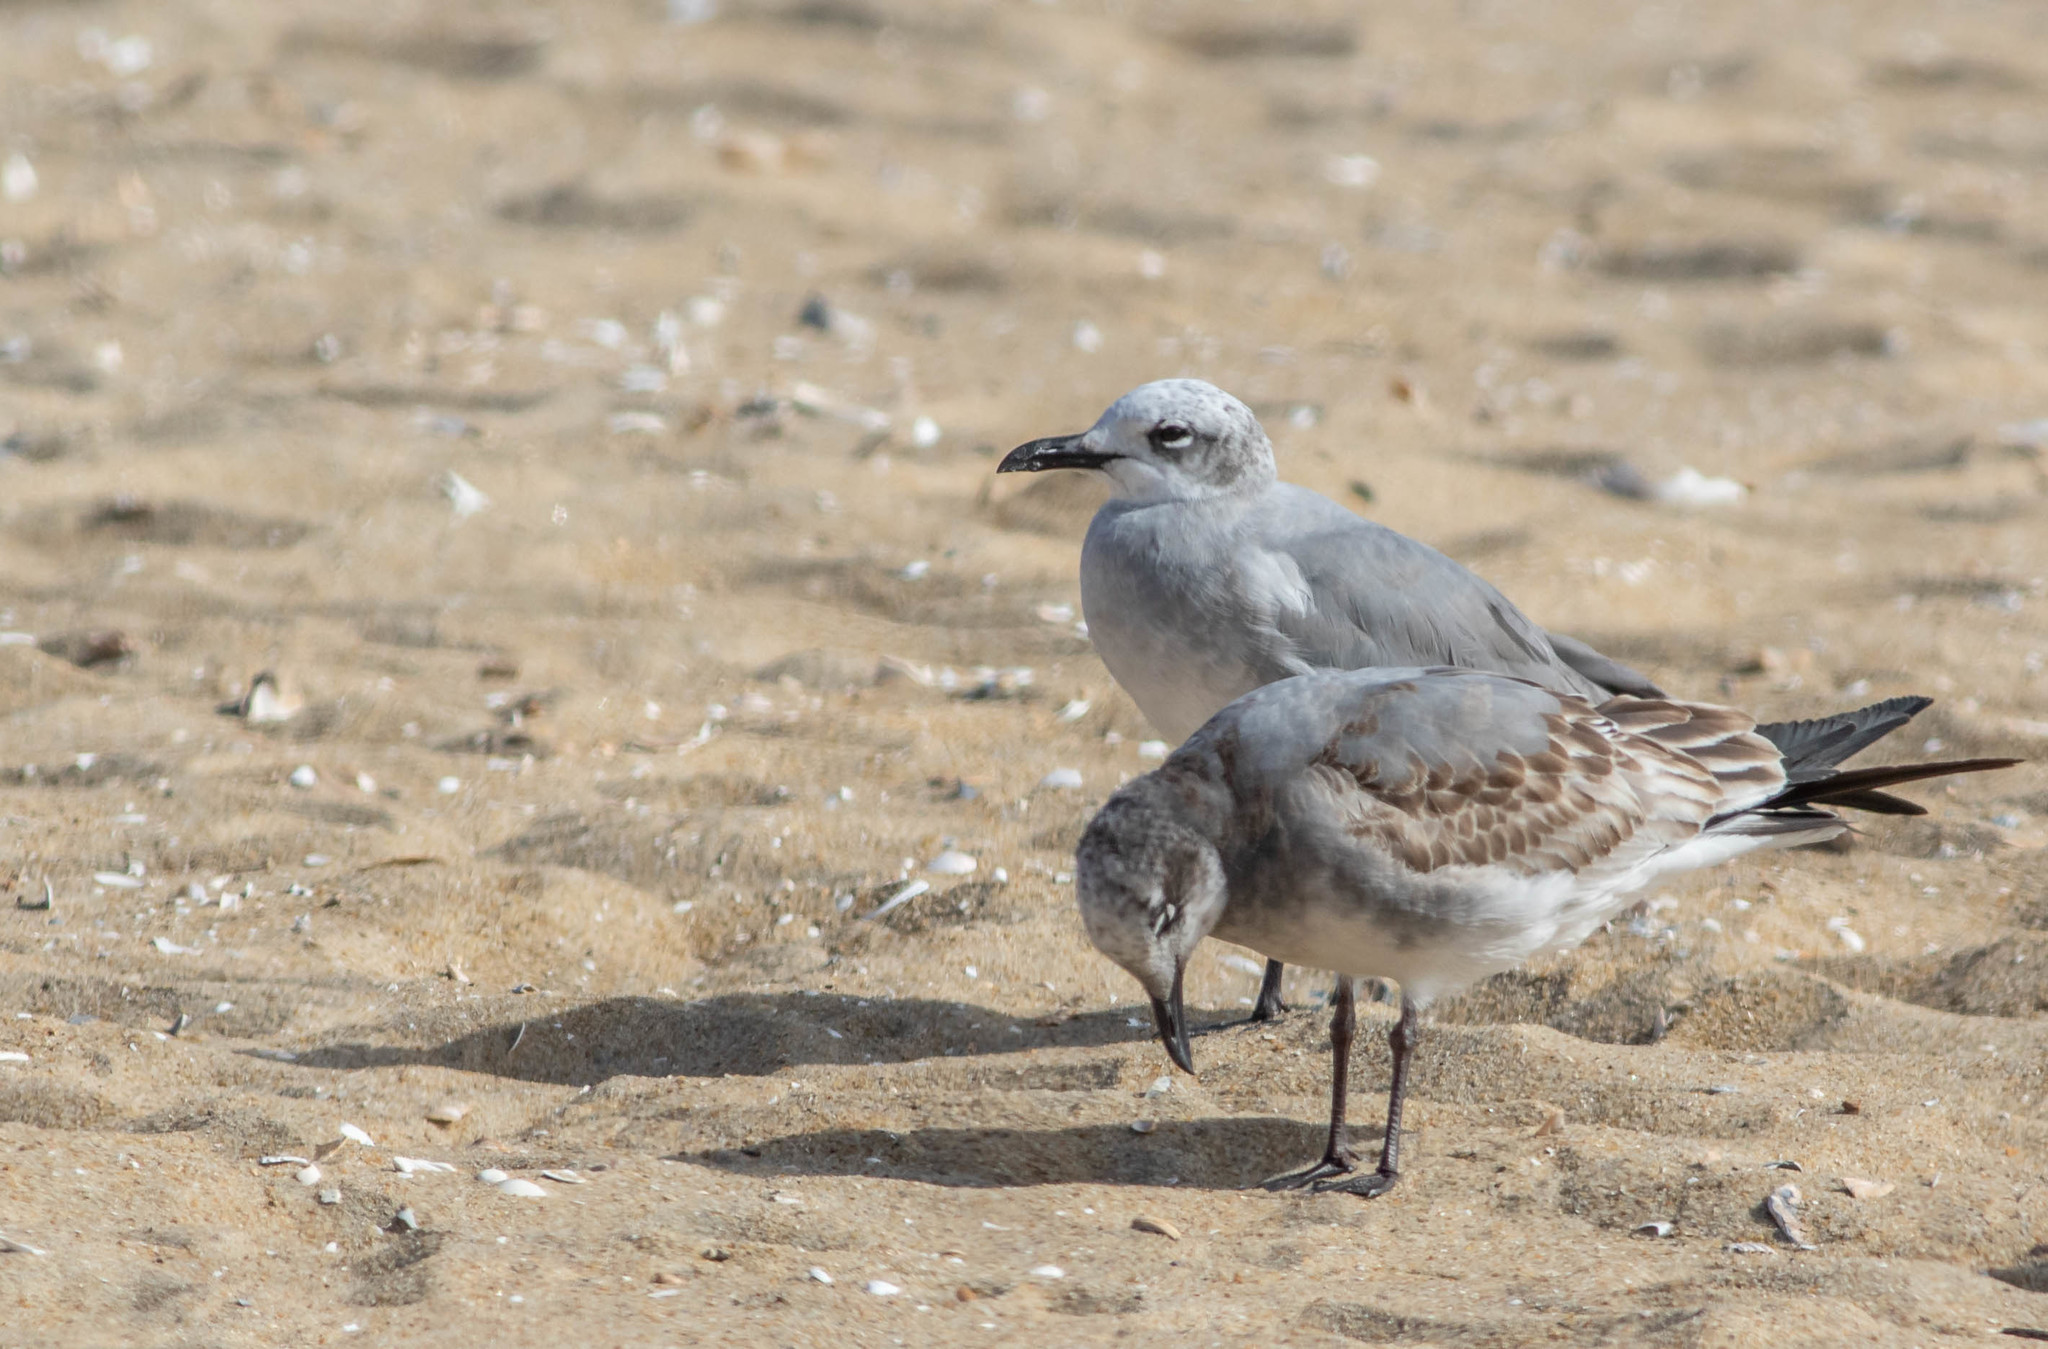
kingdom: Animalia
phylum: Chordata
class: Aves
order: Charadriiformes
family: Laridae
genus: Leucophaeus
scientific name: Leucophaeus atricilla
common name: Laughing gull
